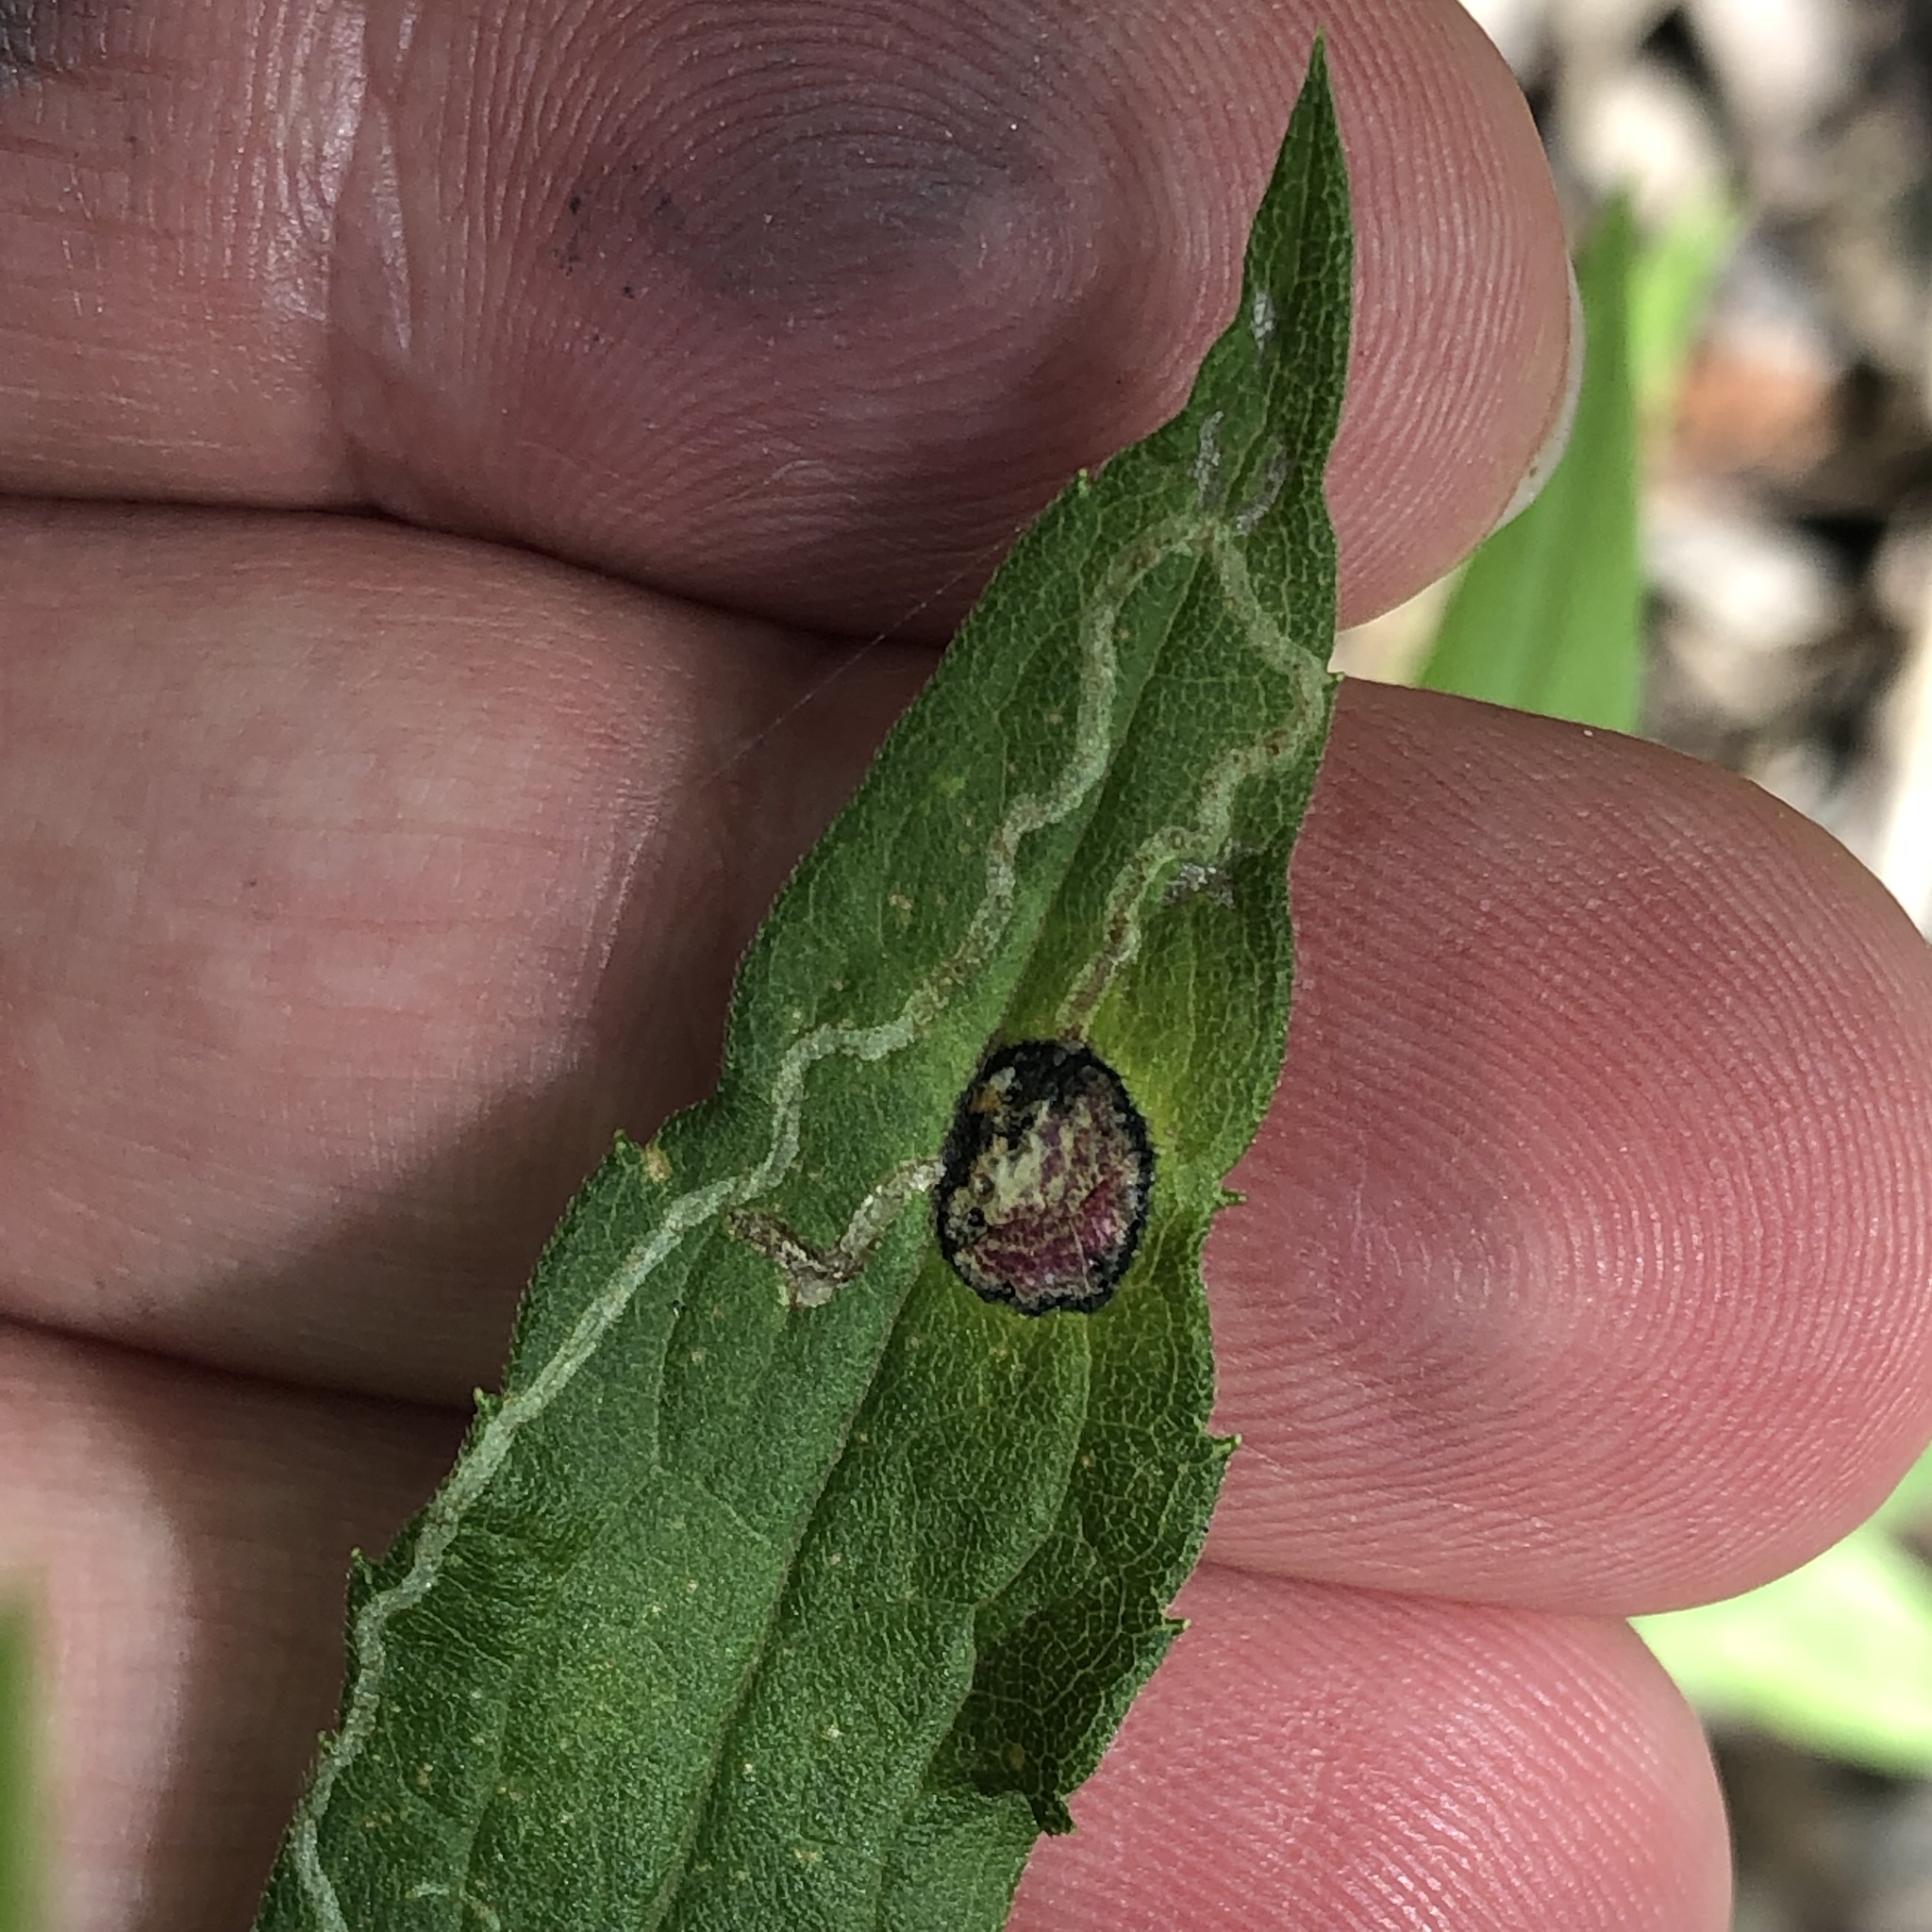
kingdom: Animalia
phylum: Arthropoda
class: Insecta
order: Diptera
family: Cecidomyiidae
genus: Asteromyia
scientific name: Asteromyia carbonifera
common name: Carbonifera goldenrod gall midge
